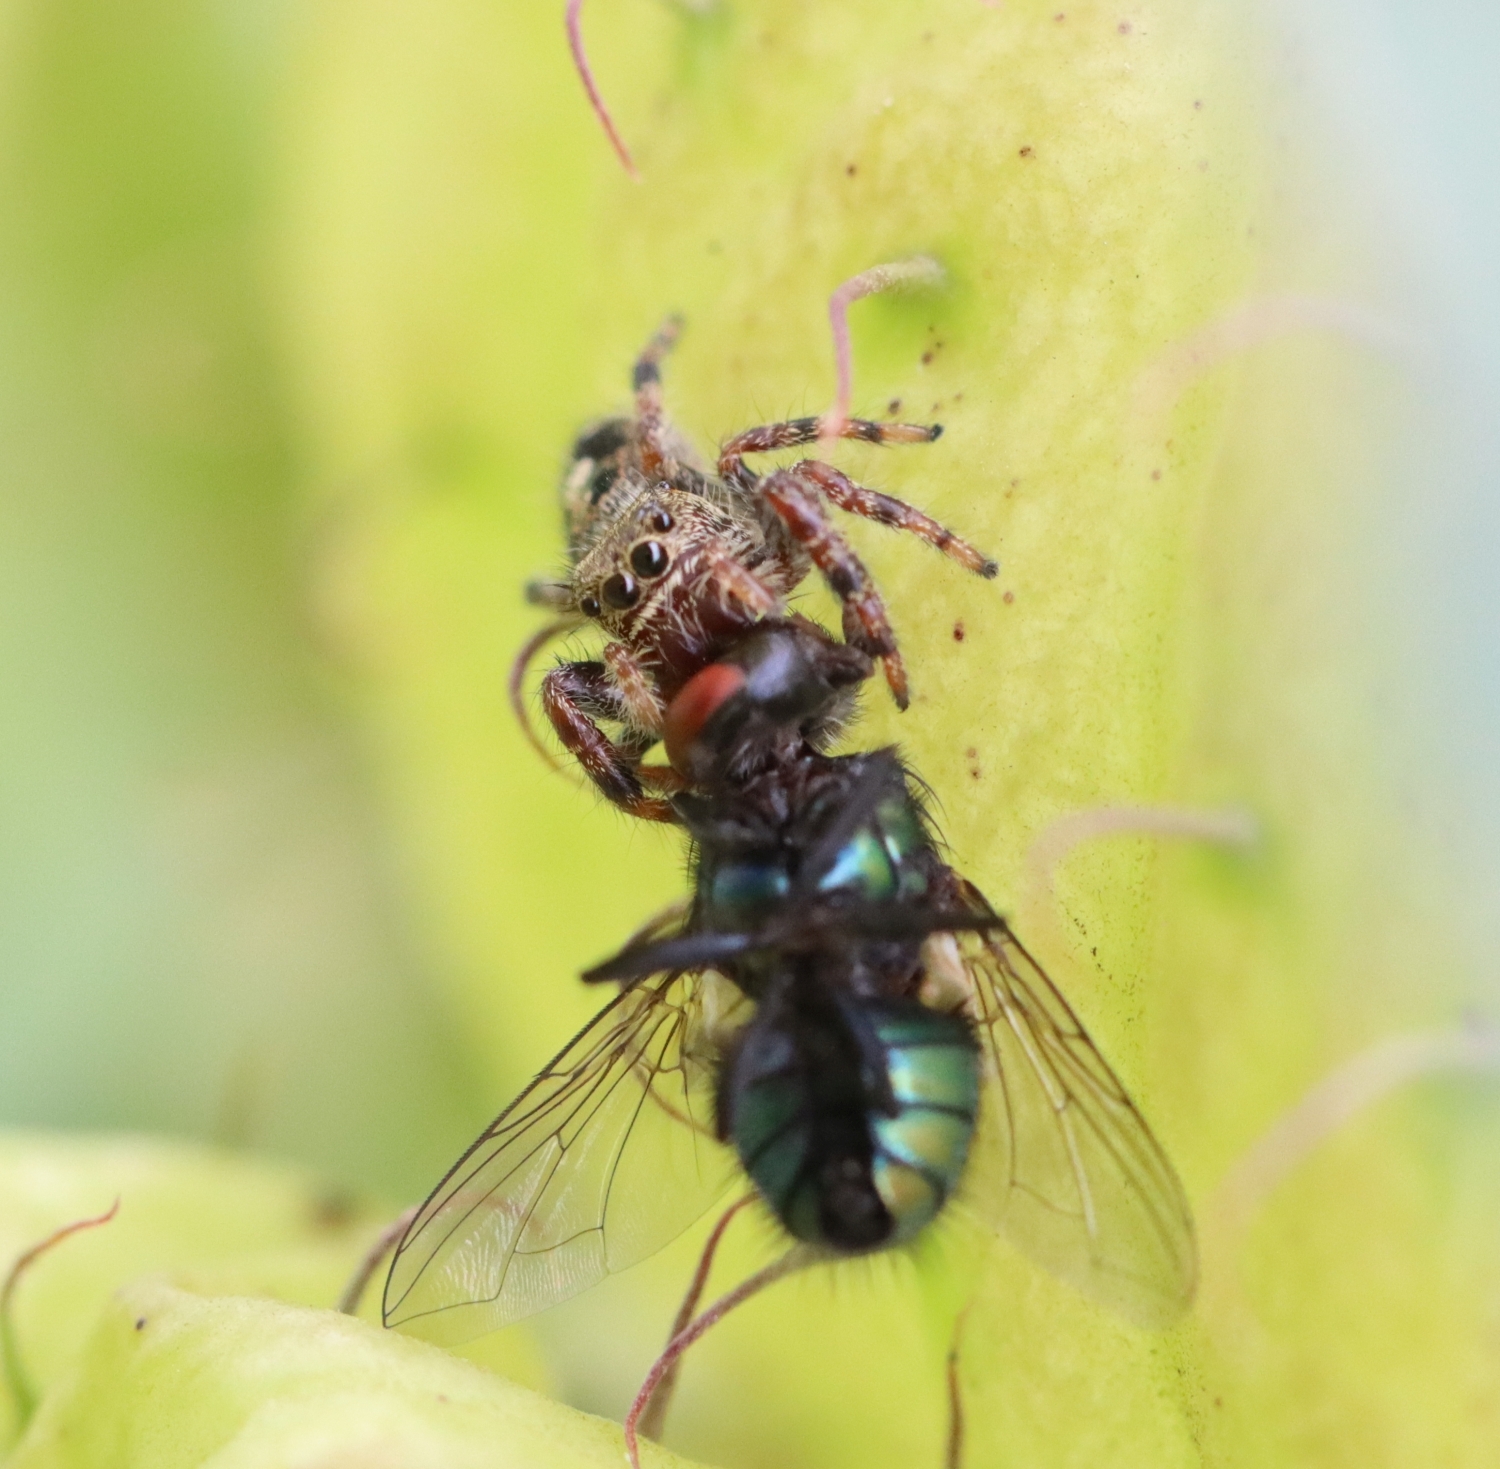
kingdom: Animalia
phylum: Arthropoda
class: Arachnida
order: Araneae
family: Salticidae
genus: Phidippus
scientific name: Phidippus audax
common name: Bold jumper
